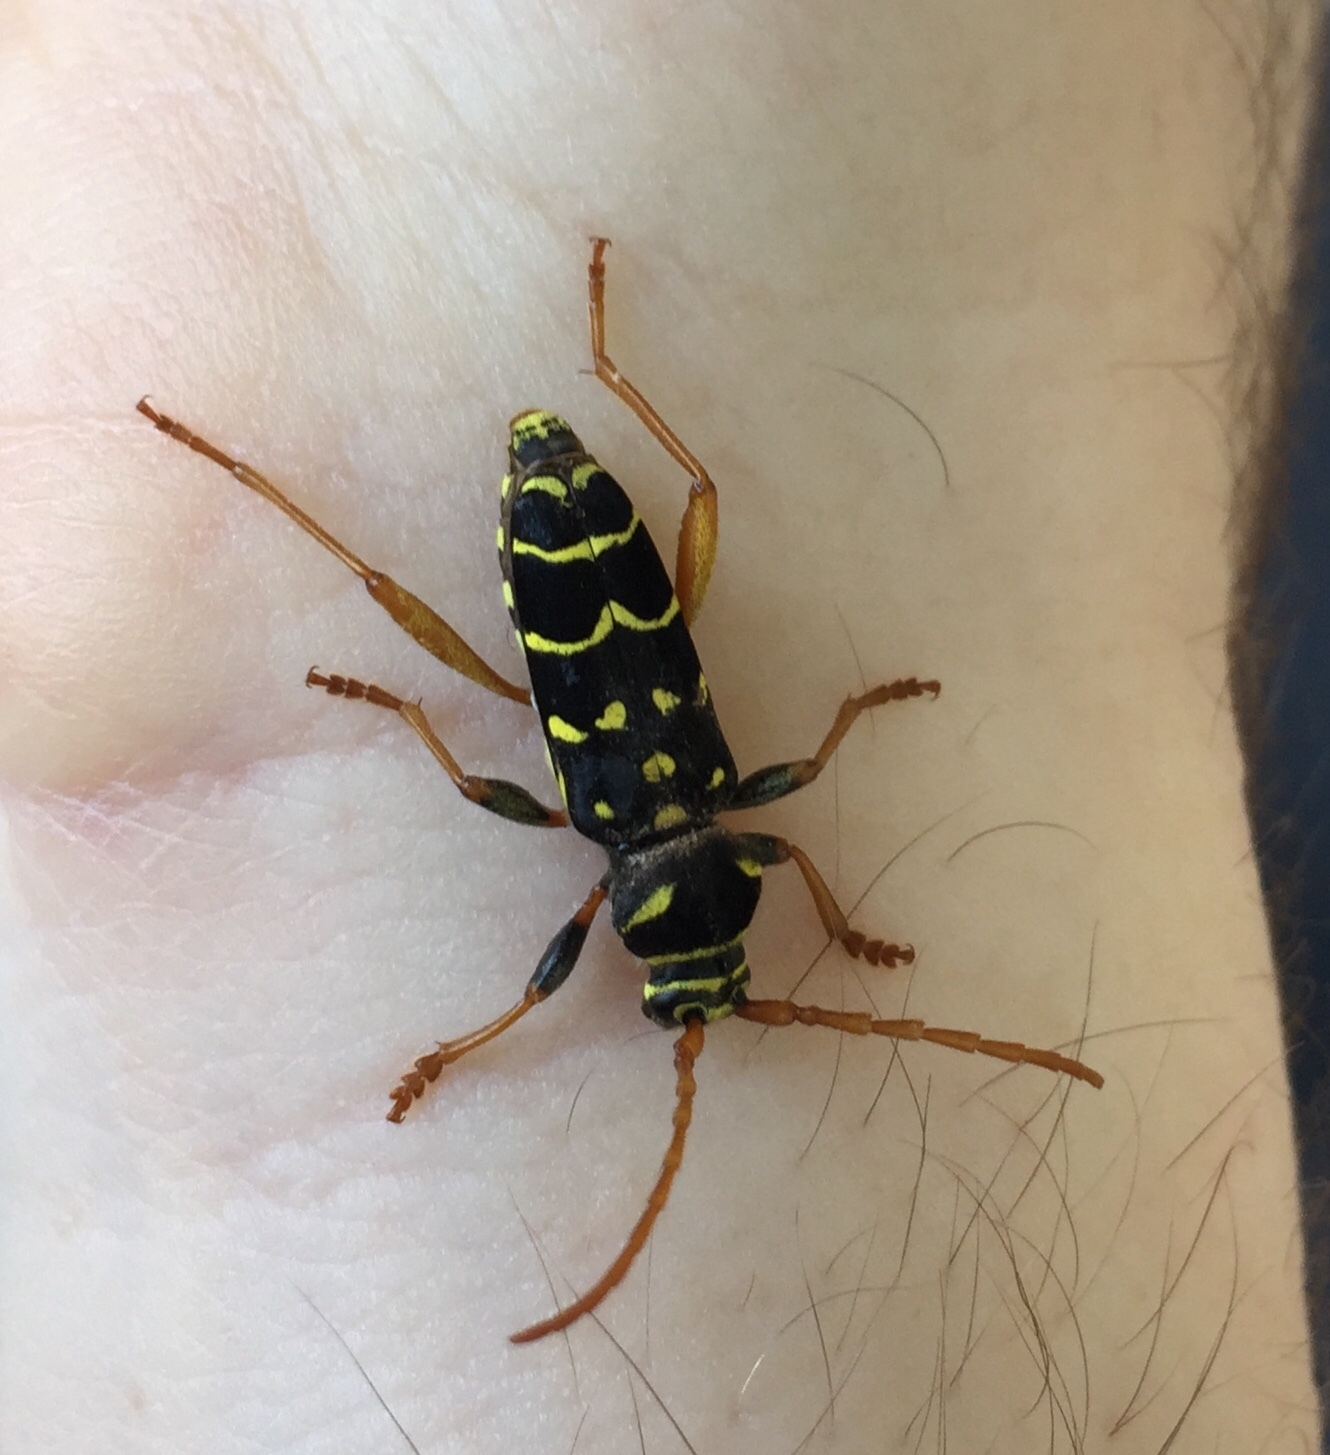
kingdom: Animalia
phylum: Arthropoda
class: Insecta
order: Coleoptera
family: Cerambycidae
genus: Plagionotus
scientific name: Plagionotus arcuatus
